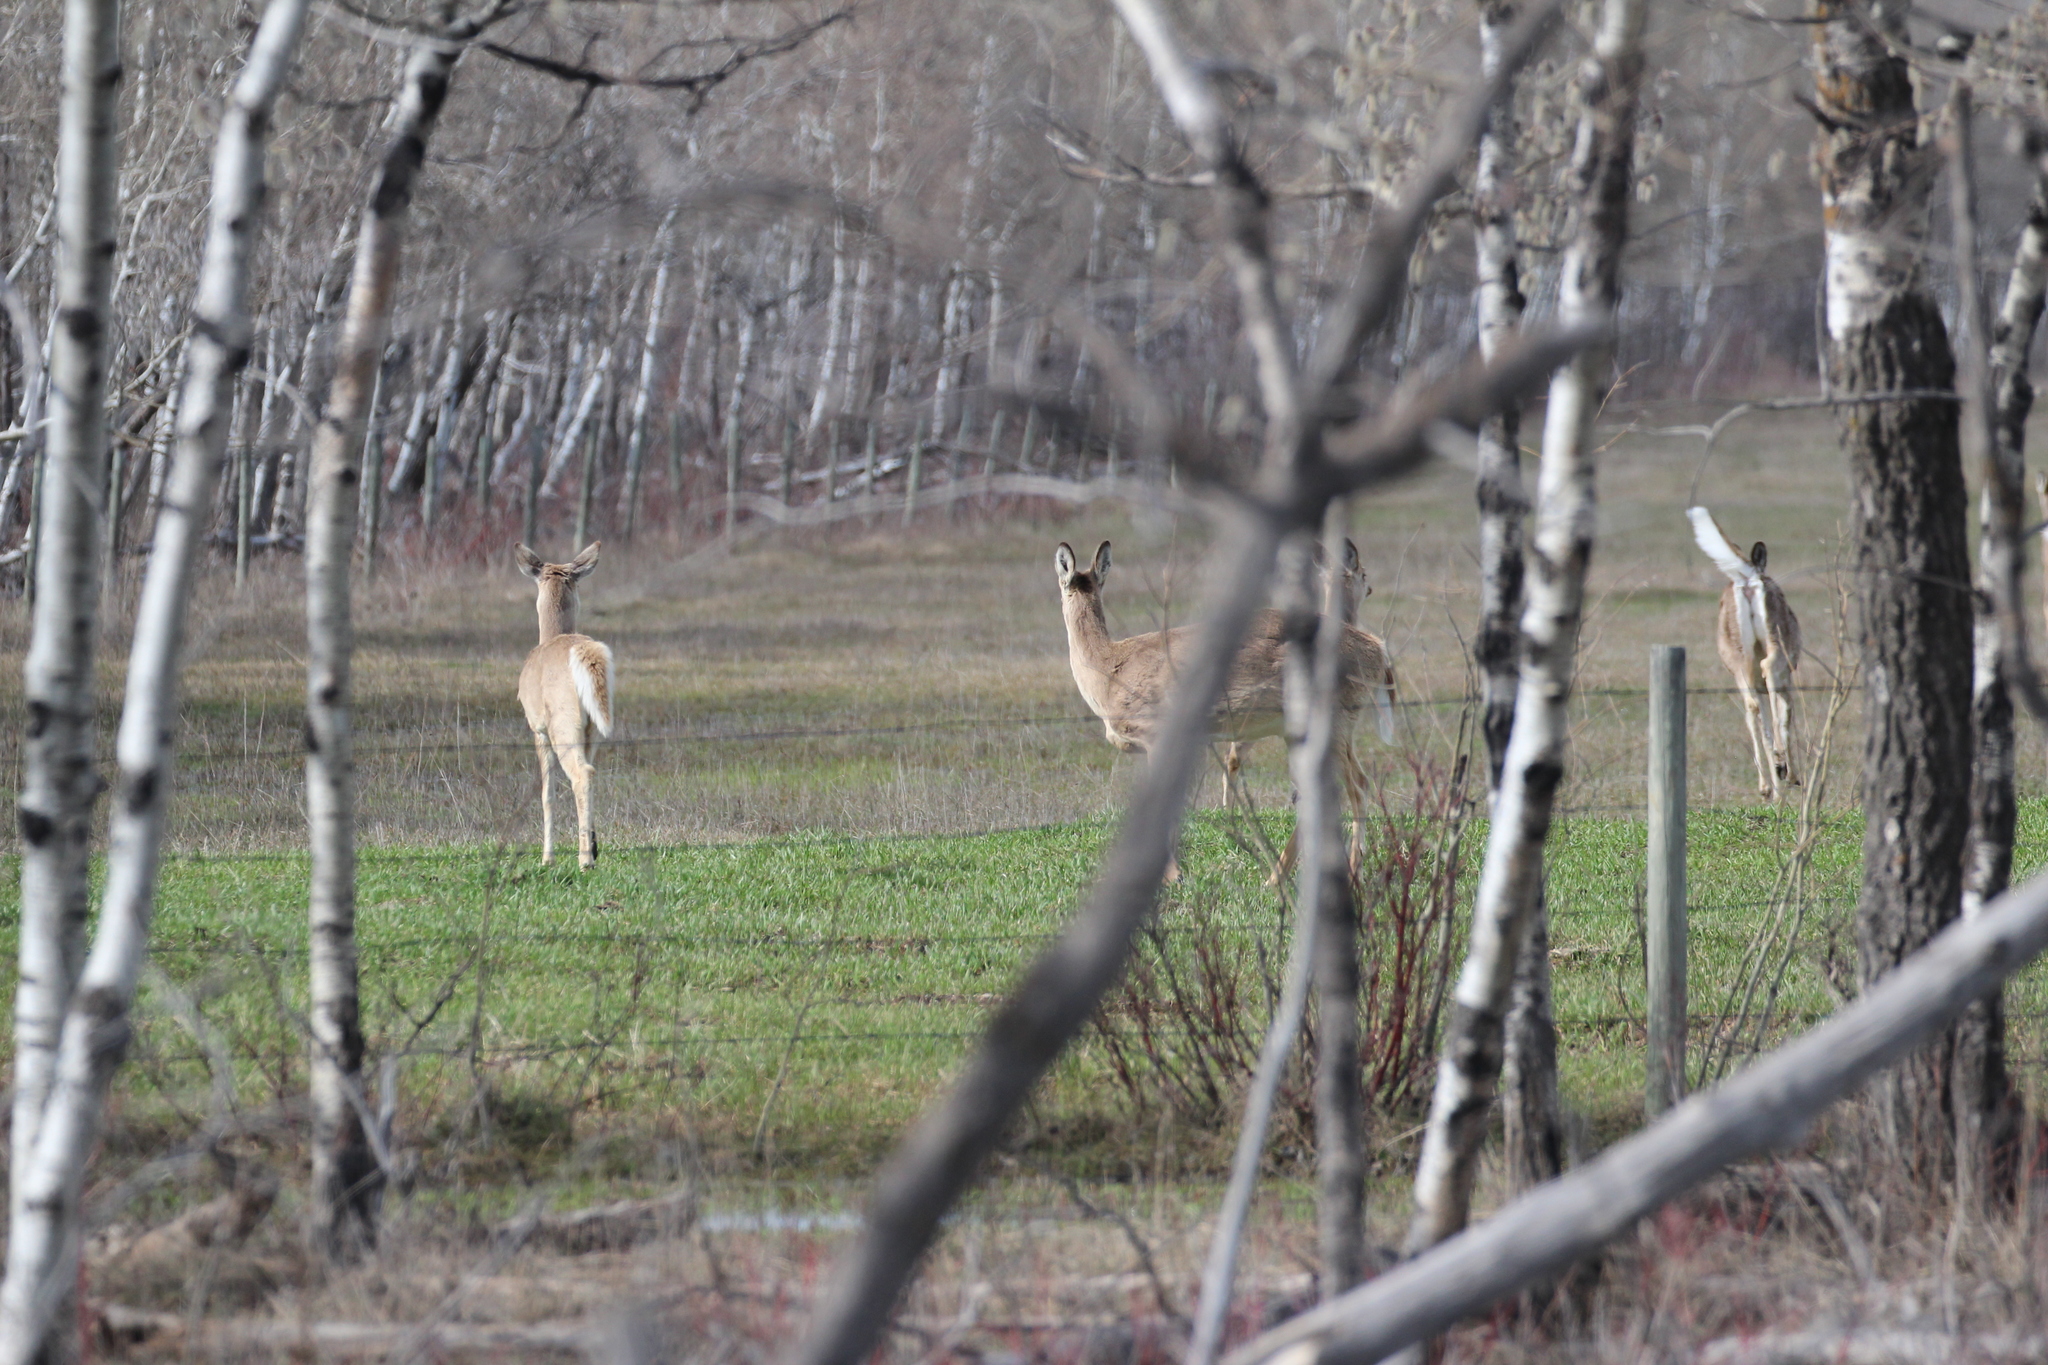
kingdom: Animalia
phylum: Chordata
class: Mammalia
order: Artiodactyla
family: Cervidae
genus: Odocoileus
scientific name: Odocoileus virginianus
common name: White-tailed deer
